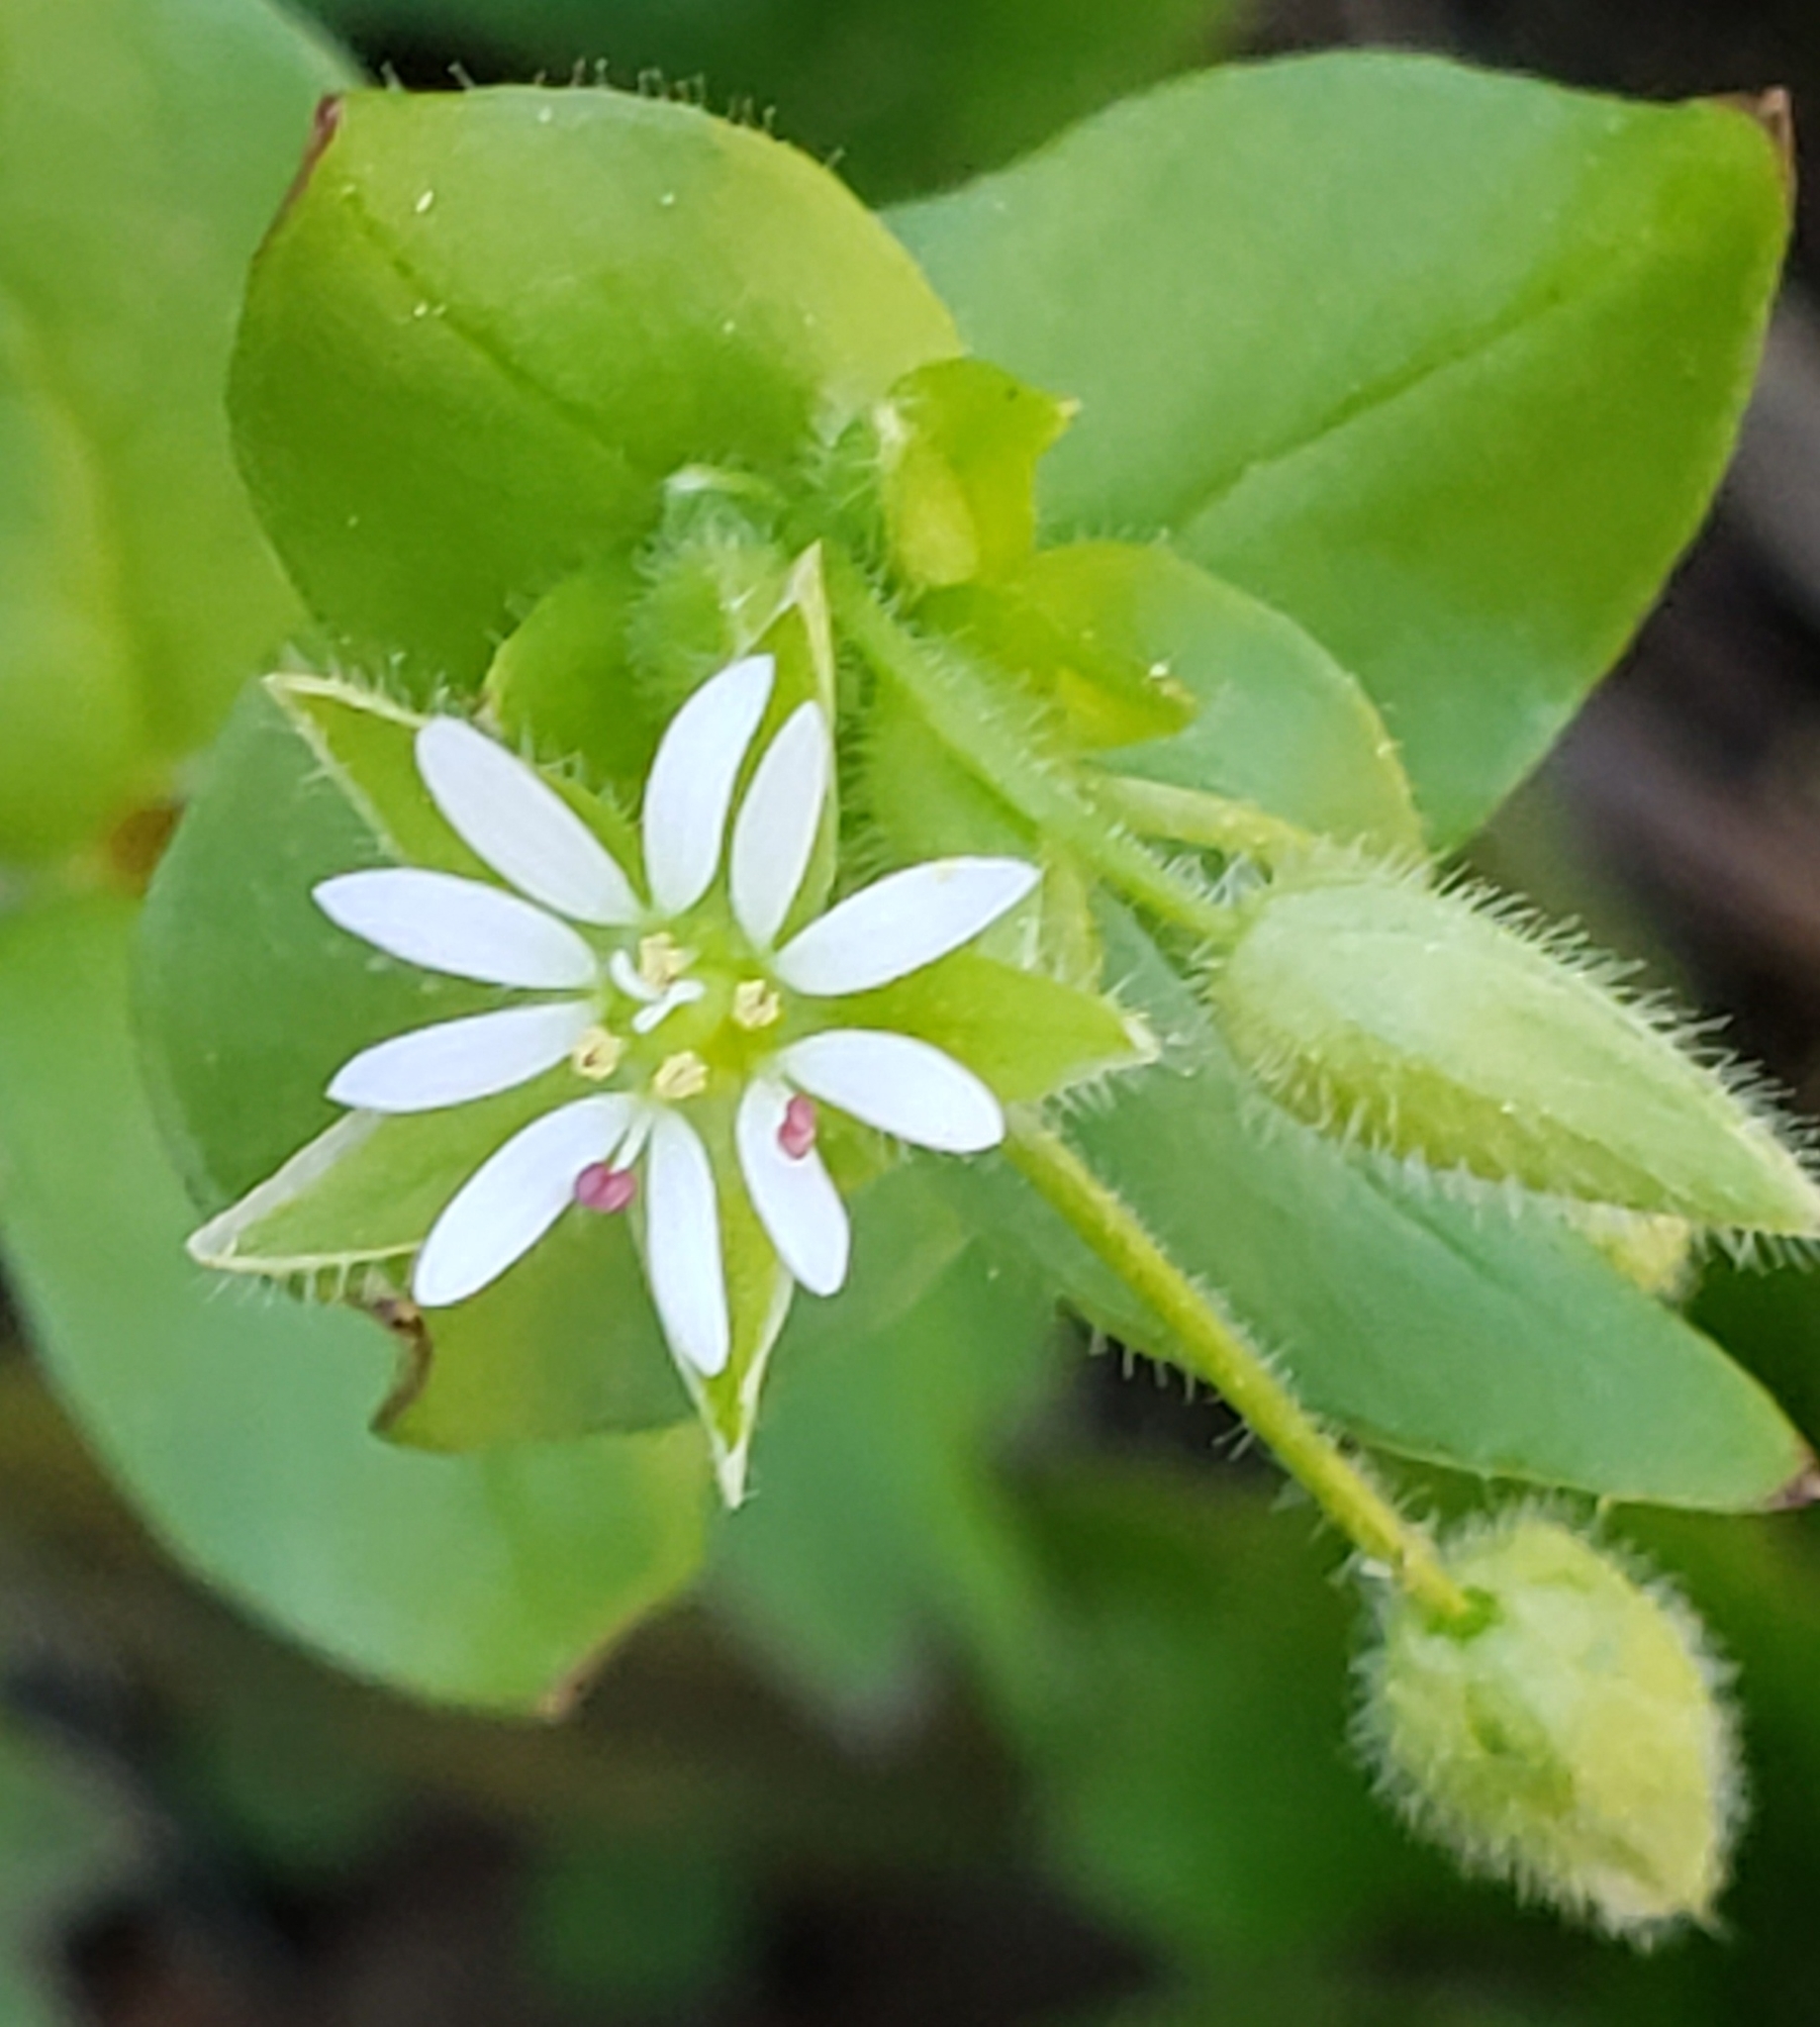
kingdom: Plantae
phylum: Tracheophyta
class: Magnoliopsida
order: Caryophyllales
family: Caryophyllaceae
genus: Stellaria
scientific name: Stellaria media
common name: Common chickweed
